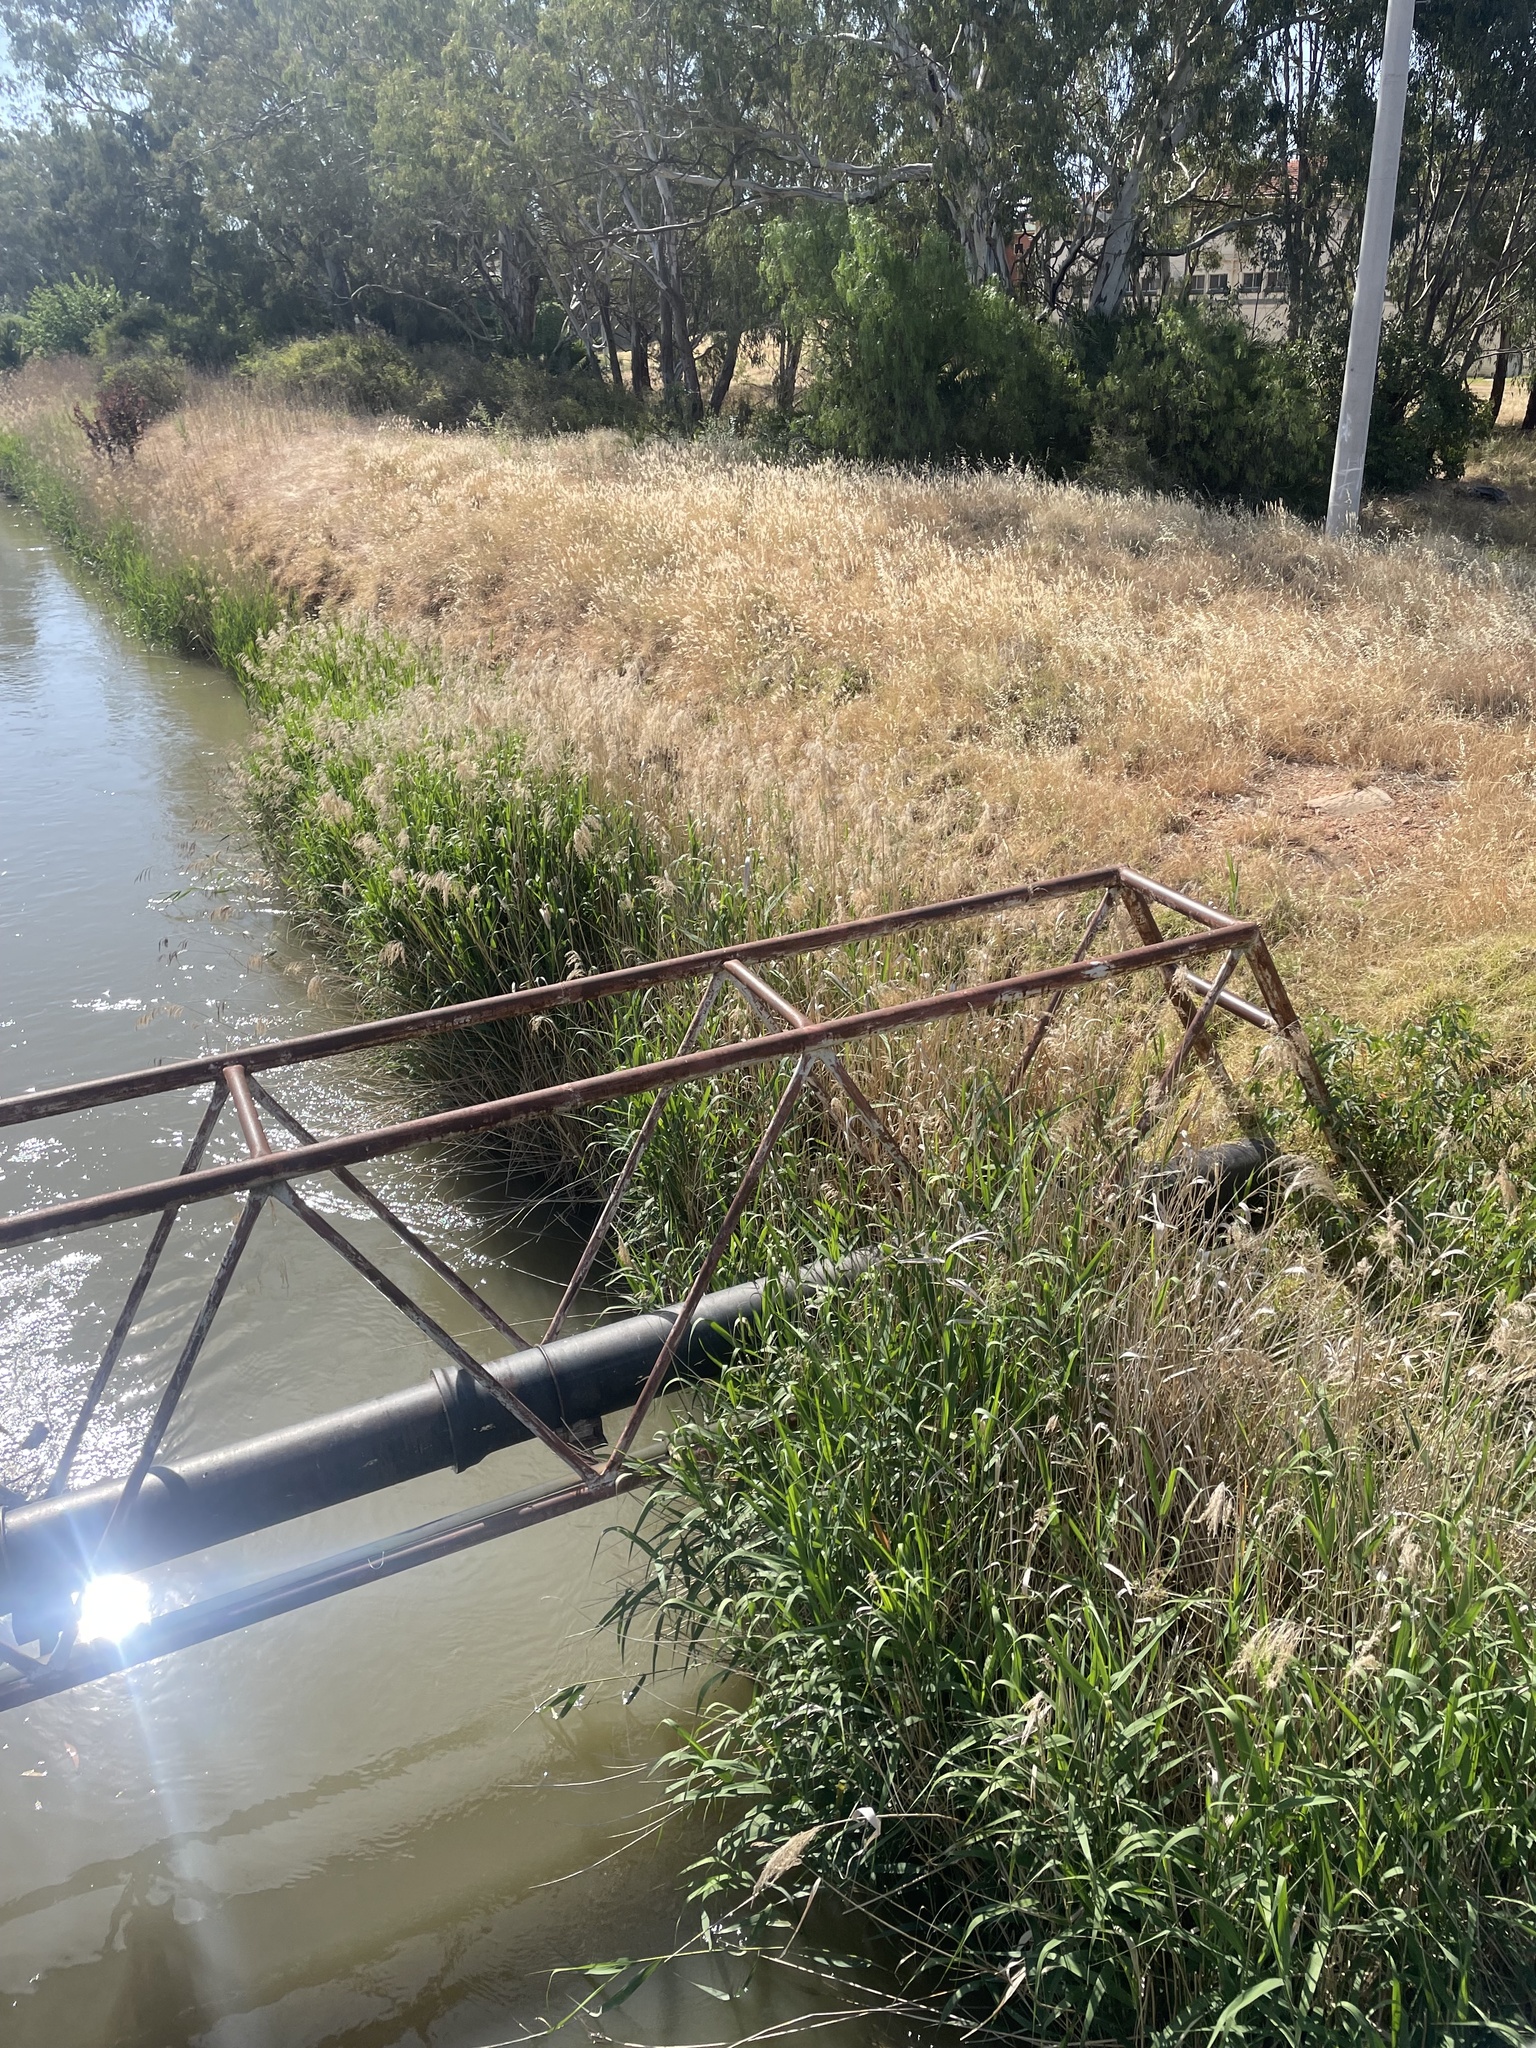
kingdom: Plantae
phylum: Tracheophyta
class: Liliopsida
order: Poales
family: Poaceae
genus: Phragmites
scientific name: Phragmites australis
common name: Common reed
